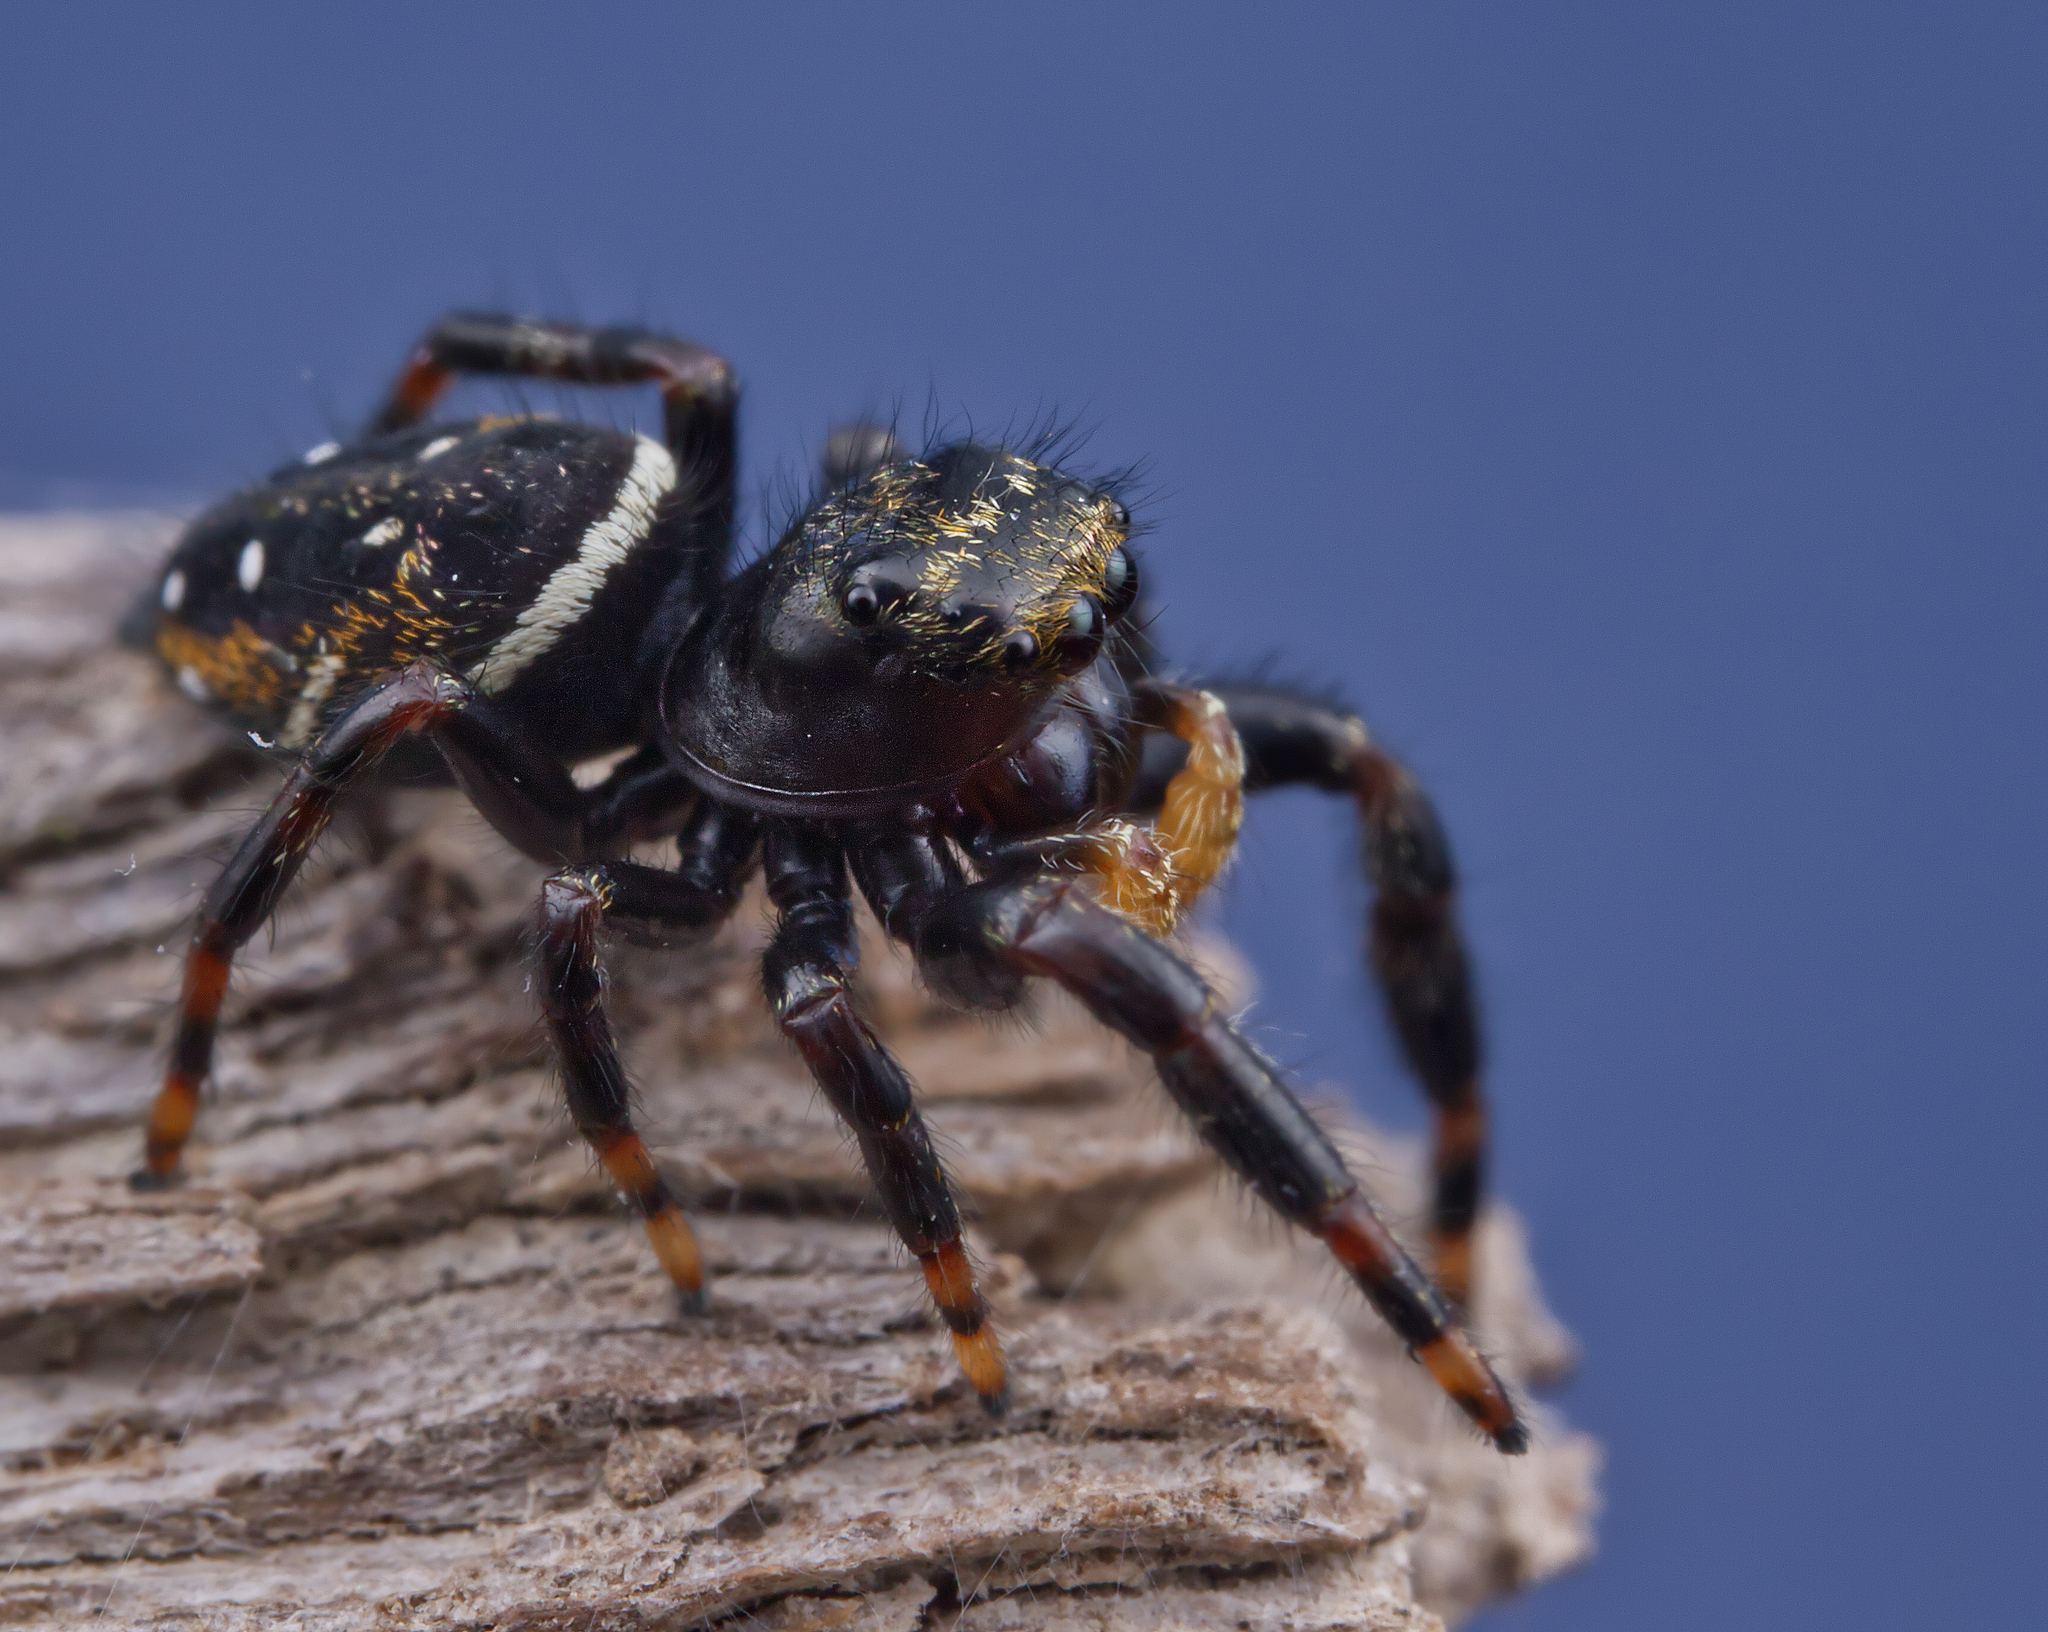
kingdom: Animalia
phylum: Arthropoda
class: Arachnida
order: Araneae
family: Salticidae
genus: Phidippus
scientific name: Phidippus clarus
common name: Brilliant jumping spider
